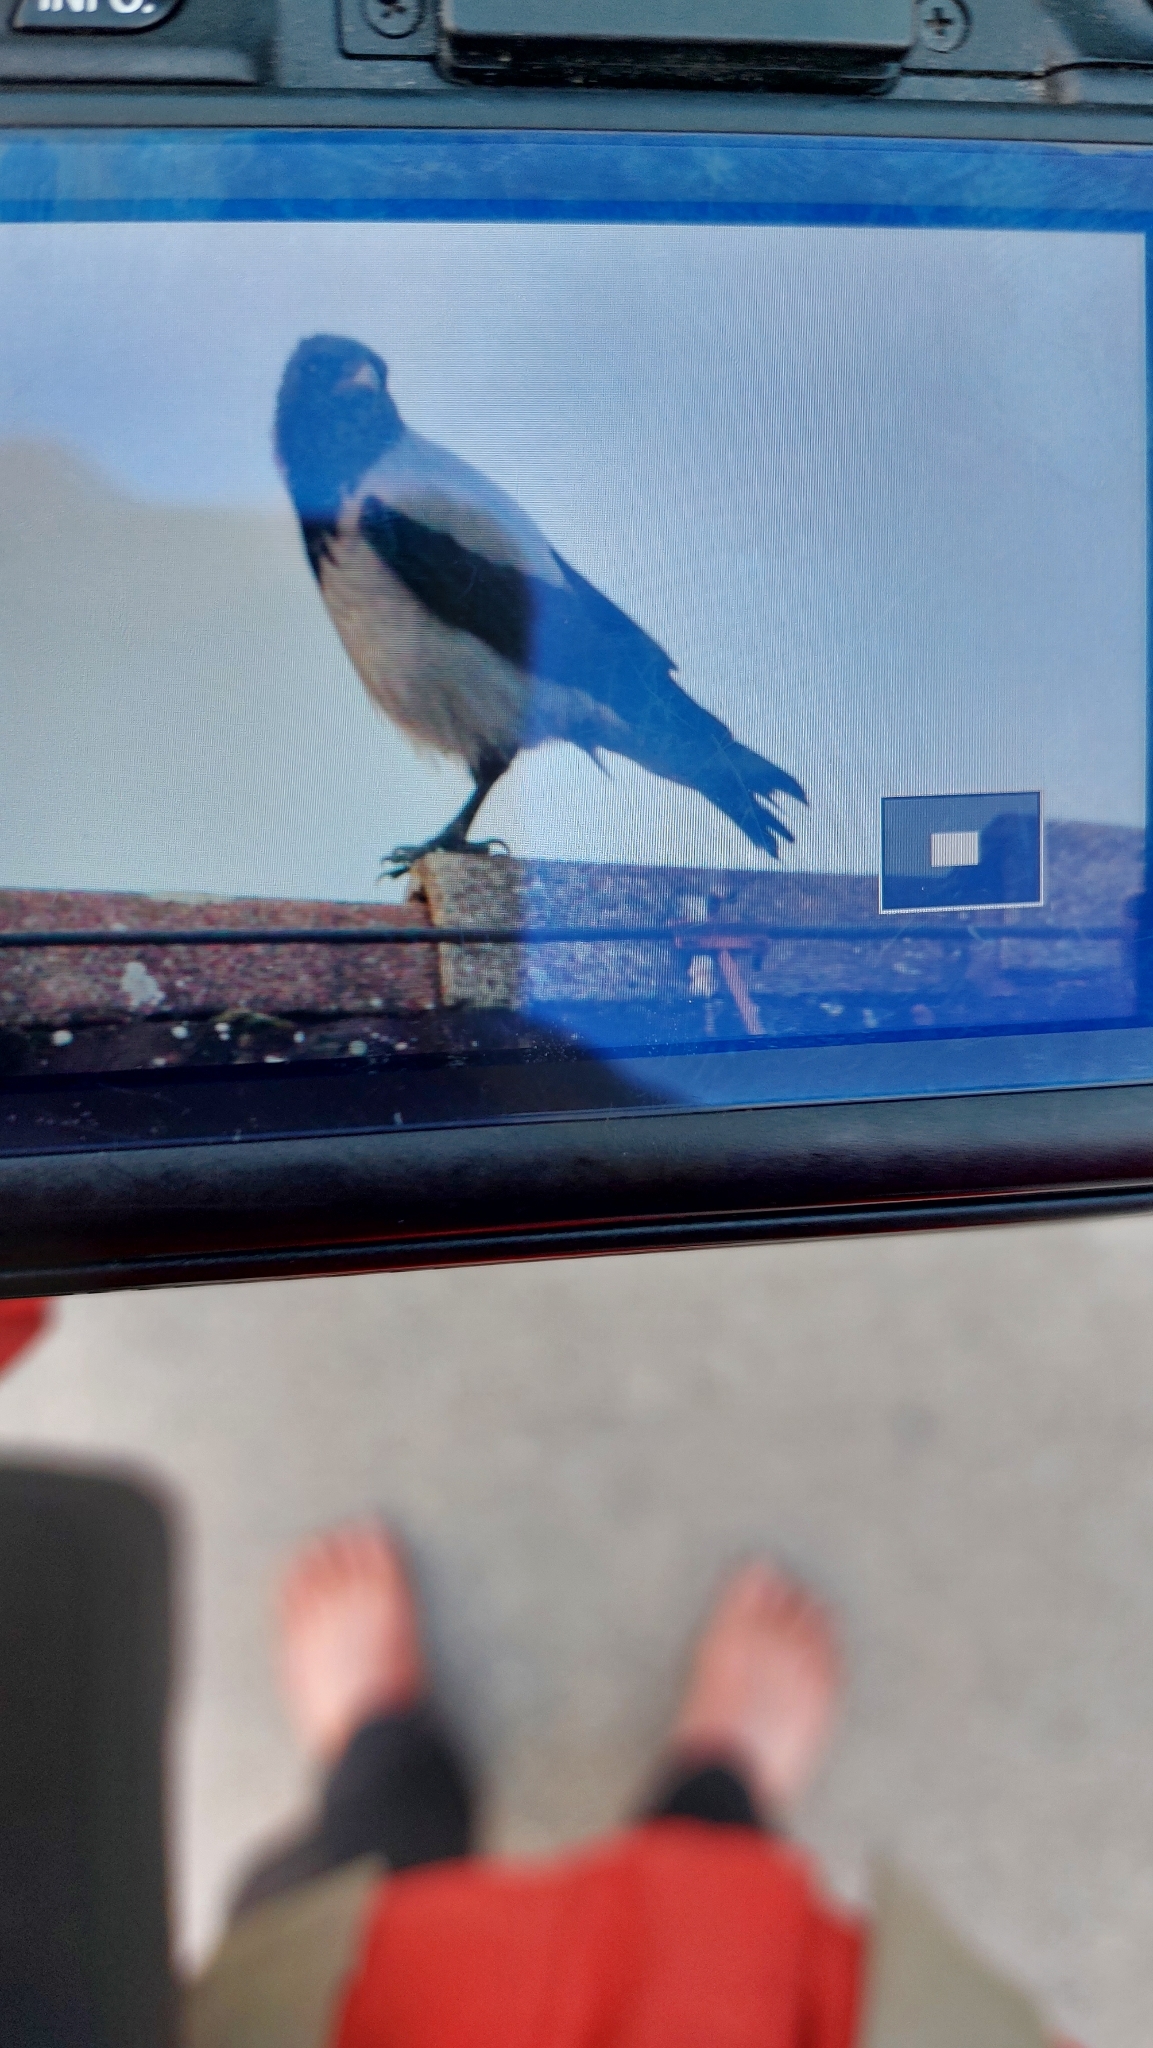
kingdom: Animalia
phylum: Chordata
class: Aves
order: Passeriformes
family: Corvidae
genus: Corvus
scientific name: Corvus cornix
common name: Hooded crow
